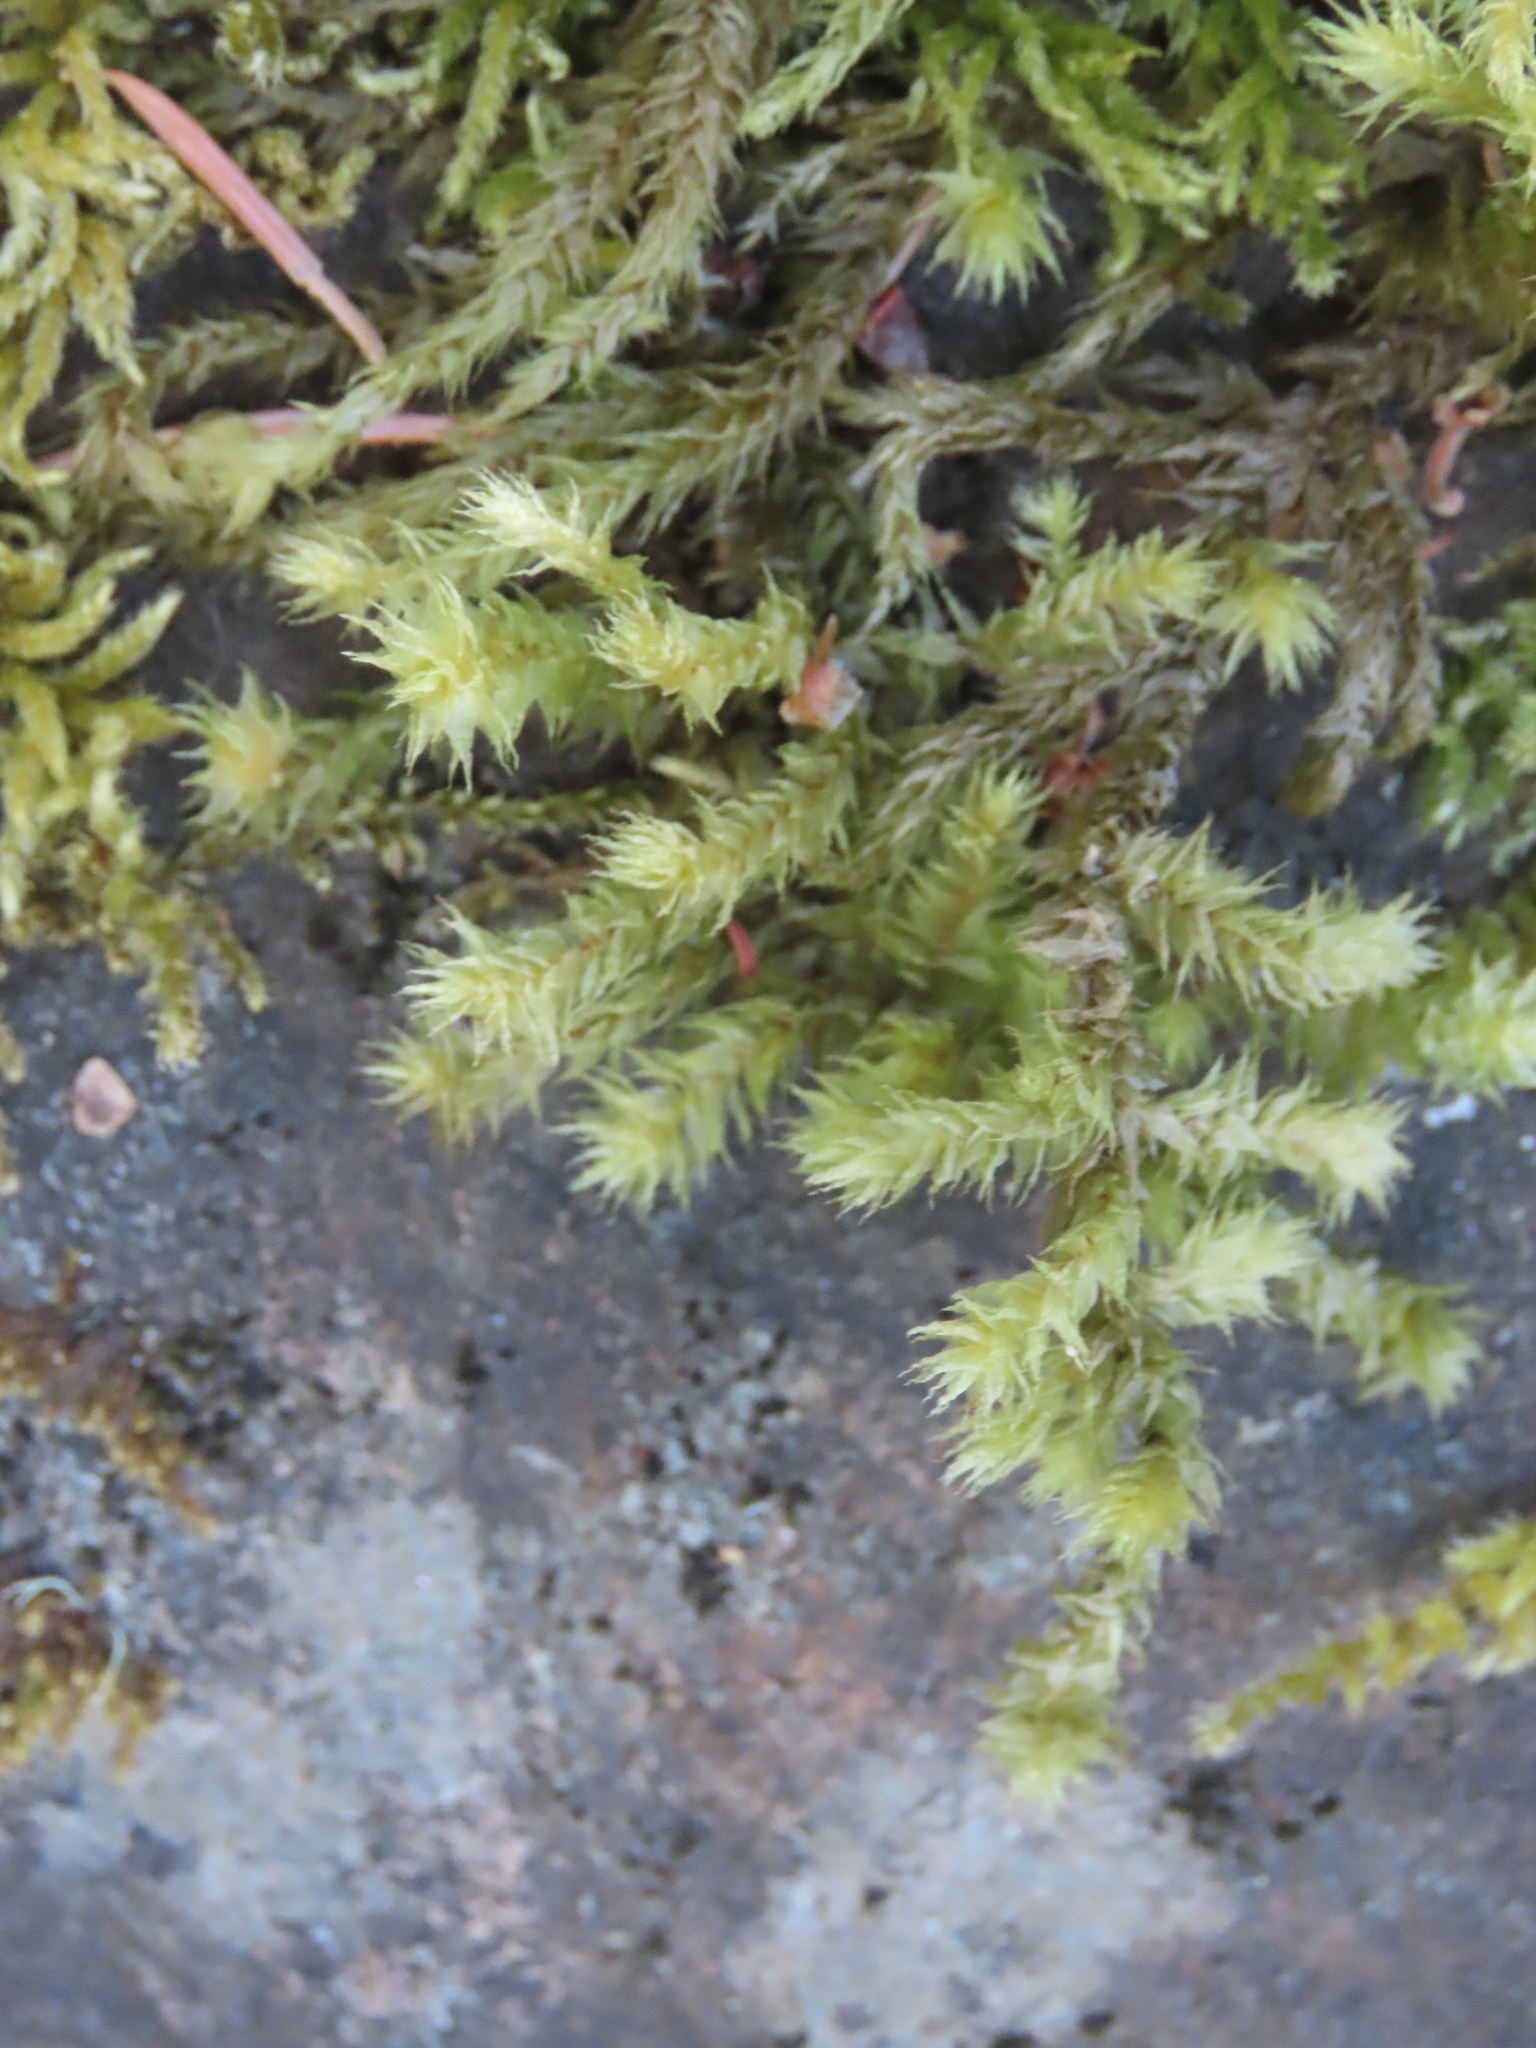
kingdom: Plantae
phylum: Bryophyta
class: Bryopsida
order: Hypnales
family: Hylocomiaceae
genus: Hylocomiadelphus
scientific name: Hylocomiadelphus triquetrus
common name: Rough goose neck moss
